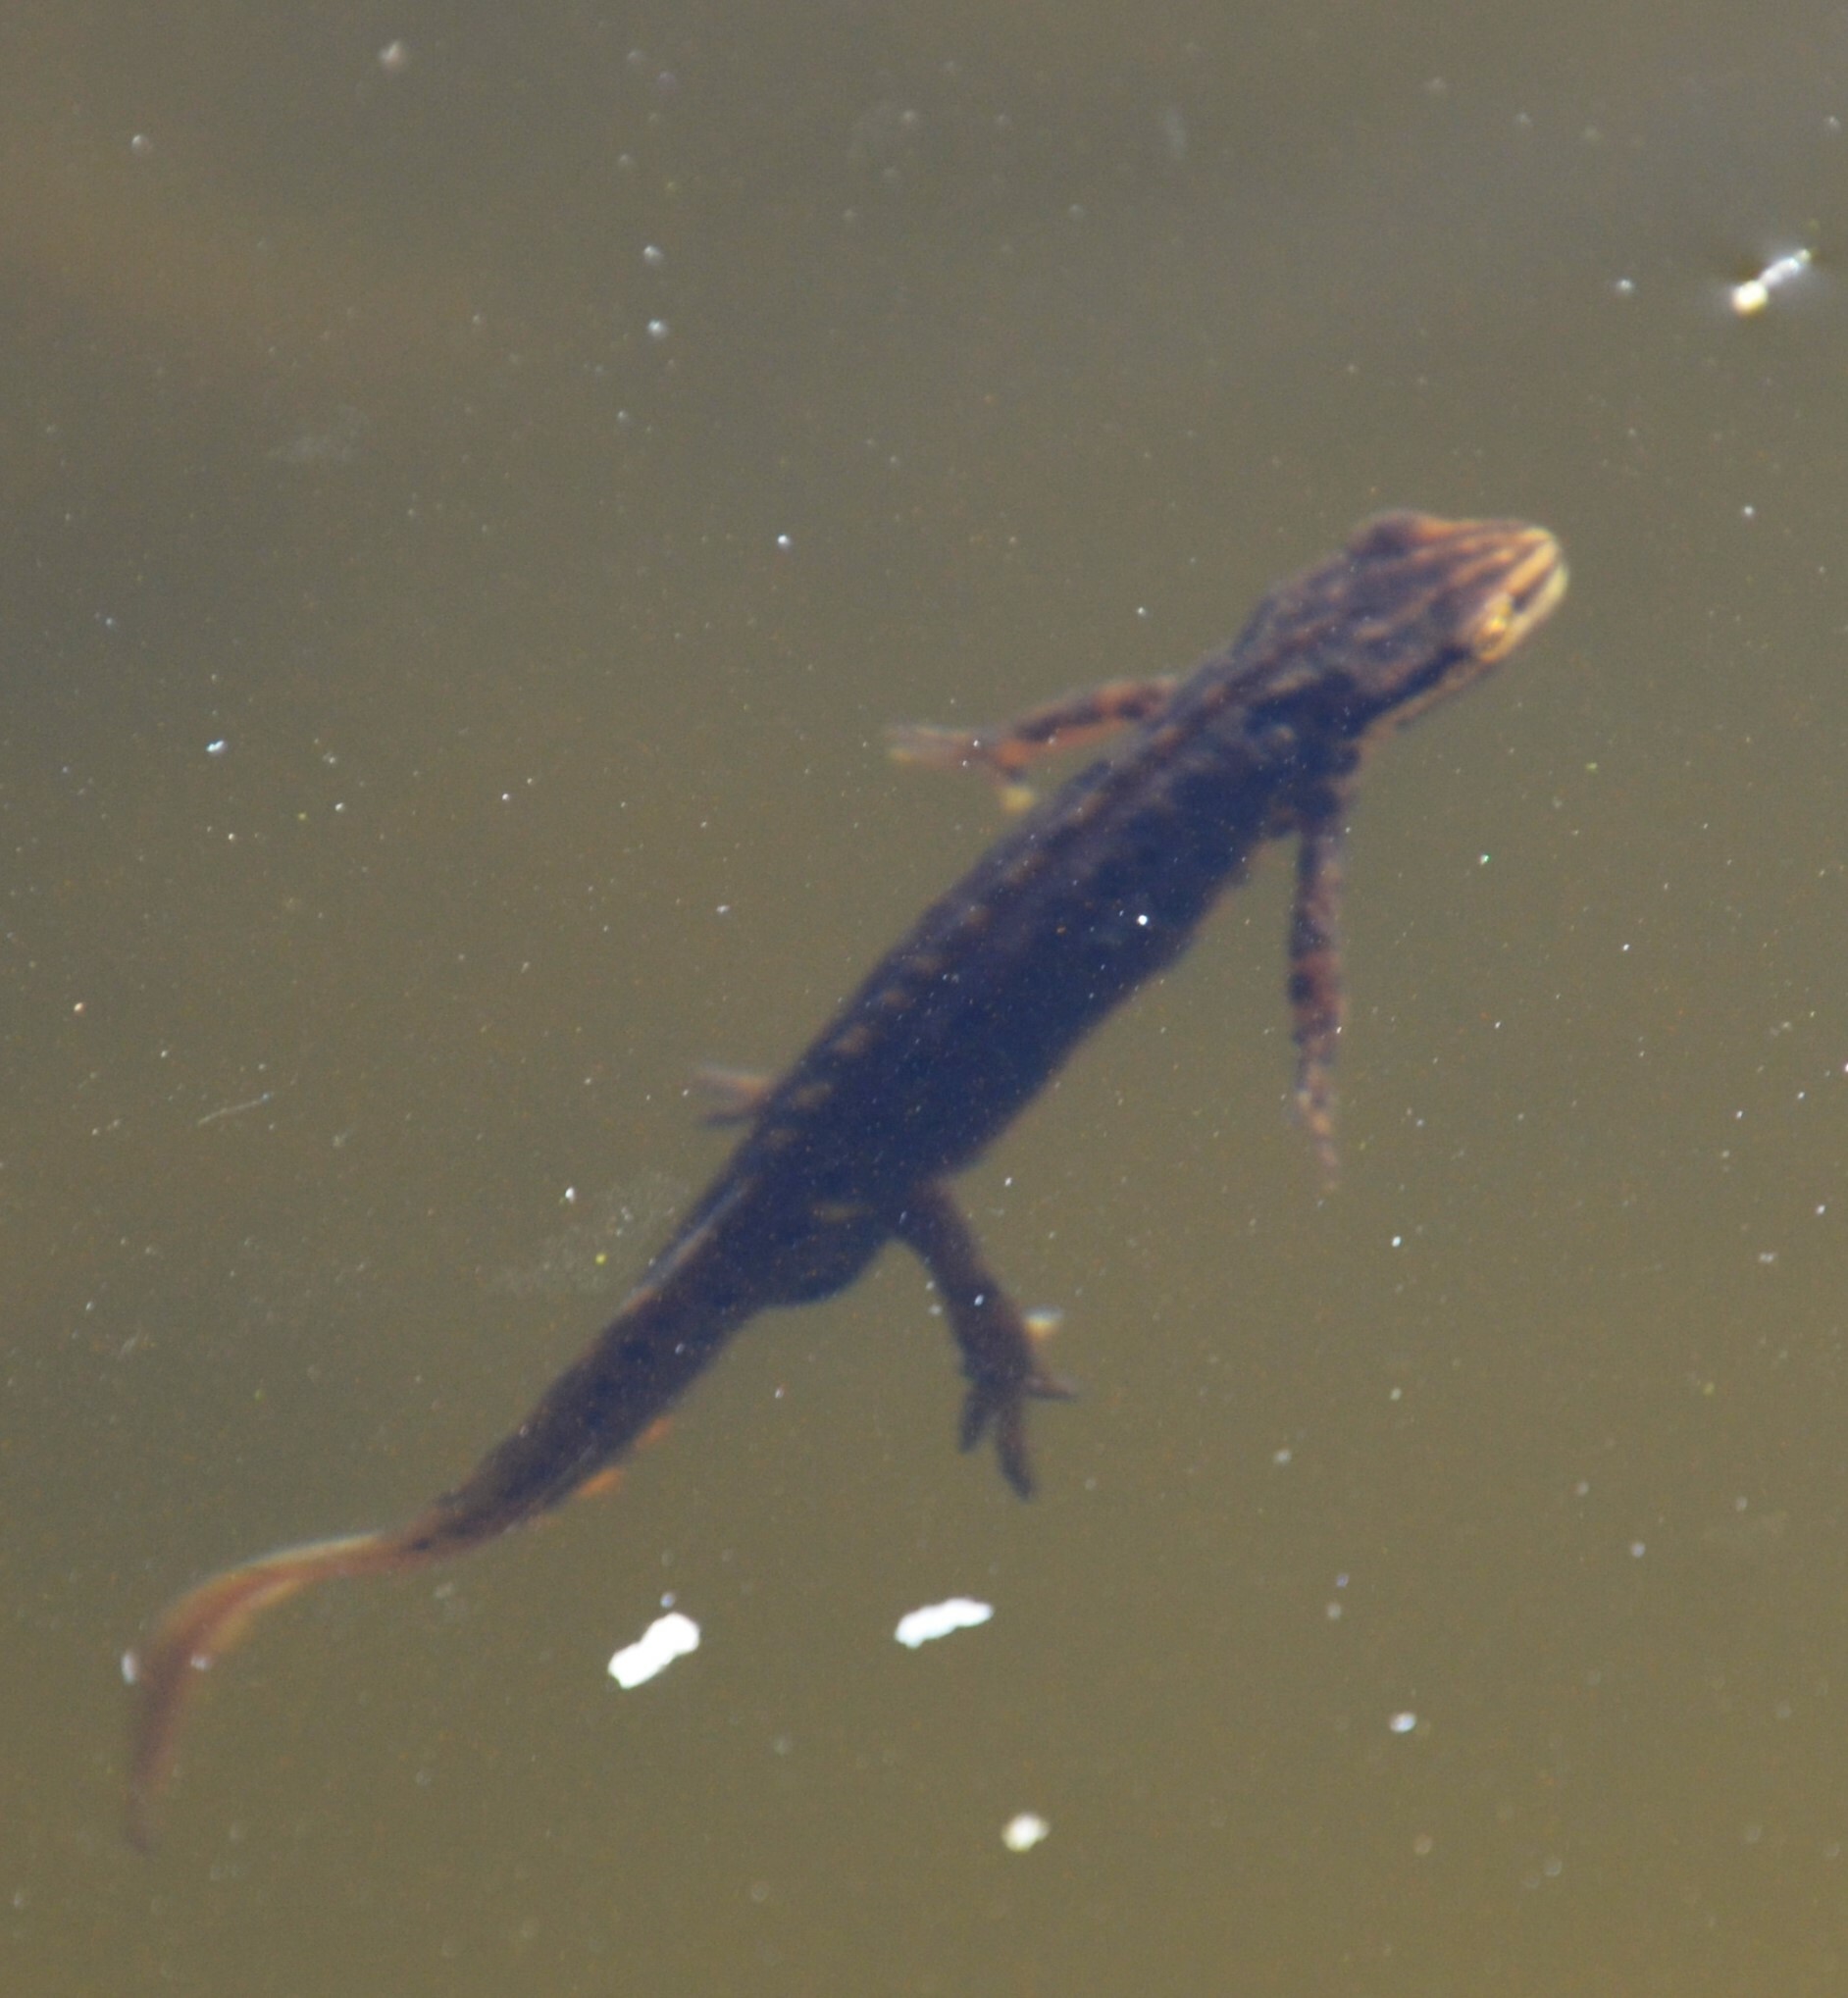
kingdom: Animalia
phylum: Chordata
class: Amphibia
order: Caudata
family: Salamandridae
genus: Lissotriton
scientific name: Lissotriton vulgaris
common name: Smooth newt
